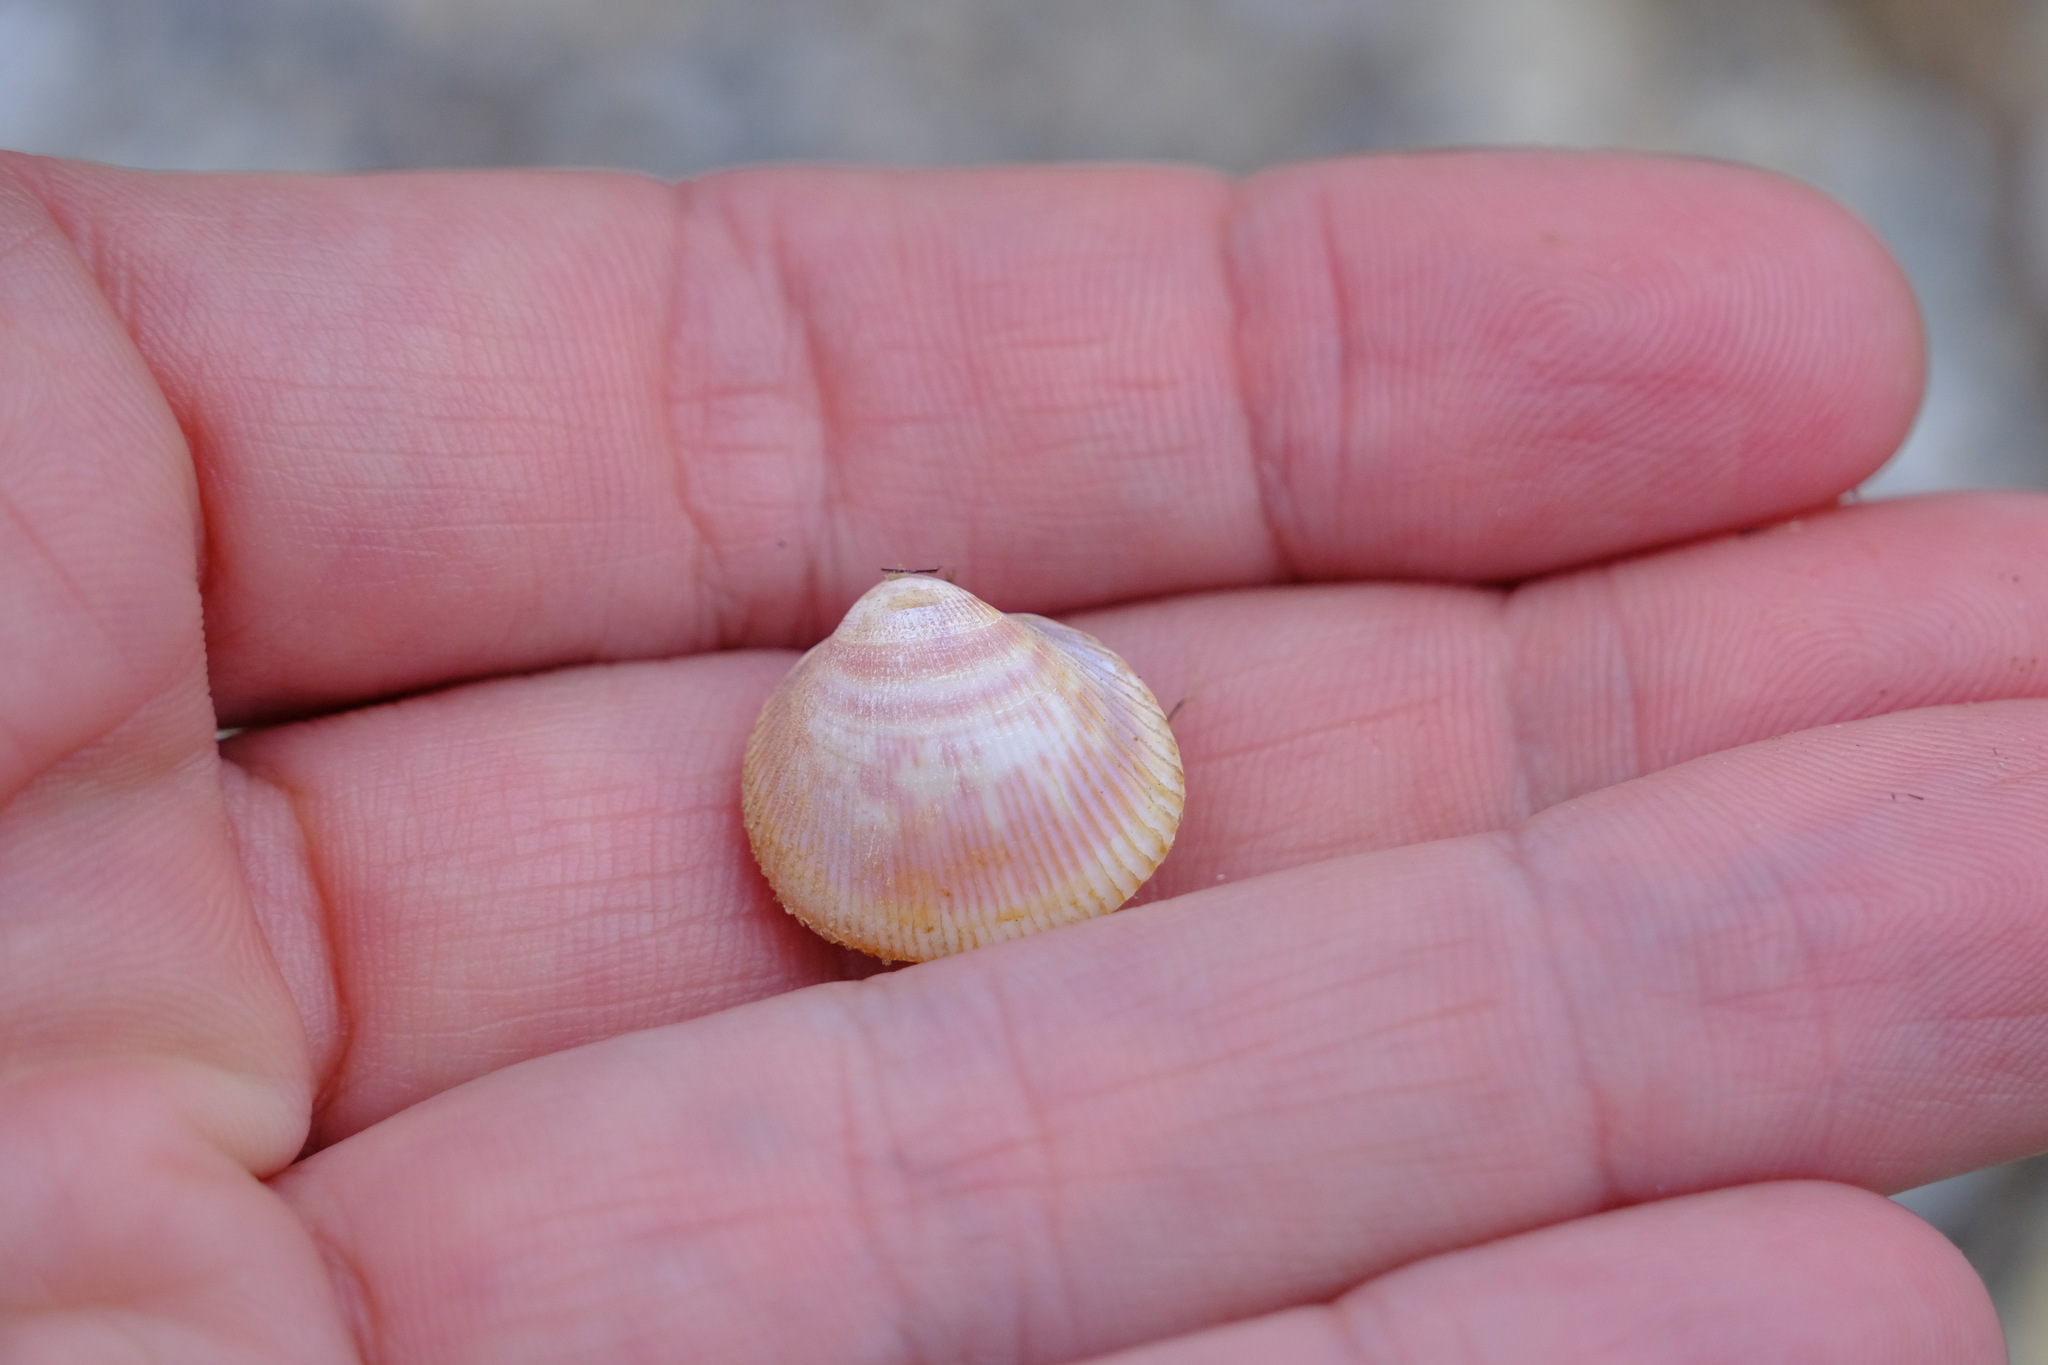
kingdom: Animalia
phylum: Mollusca
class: Bivalvia
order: Cardiida
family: Cardiidae
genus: Fulvia
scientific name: Fulvia tenuicostata
